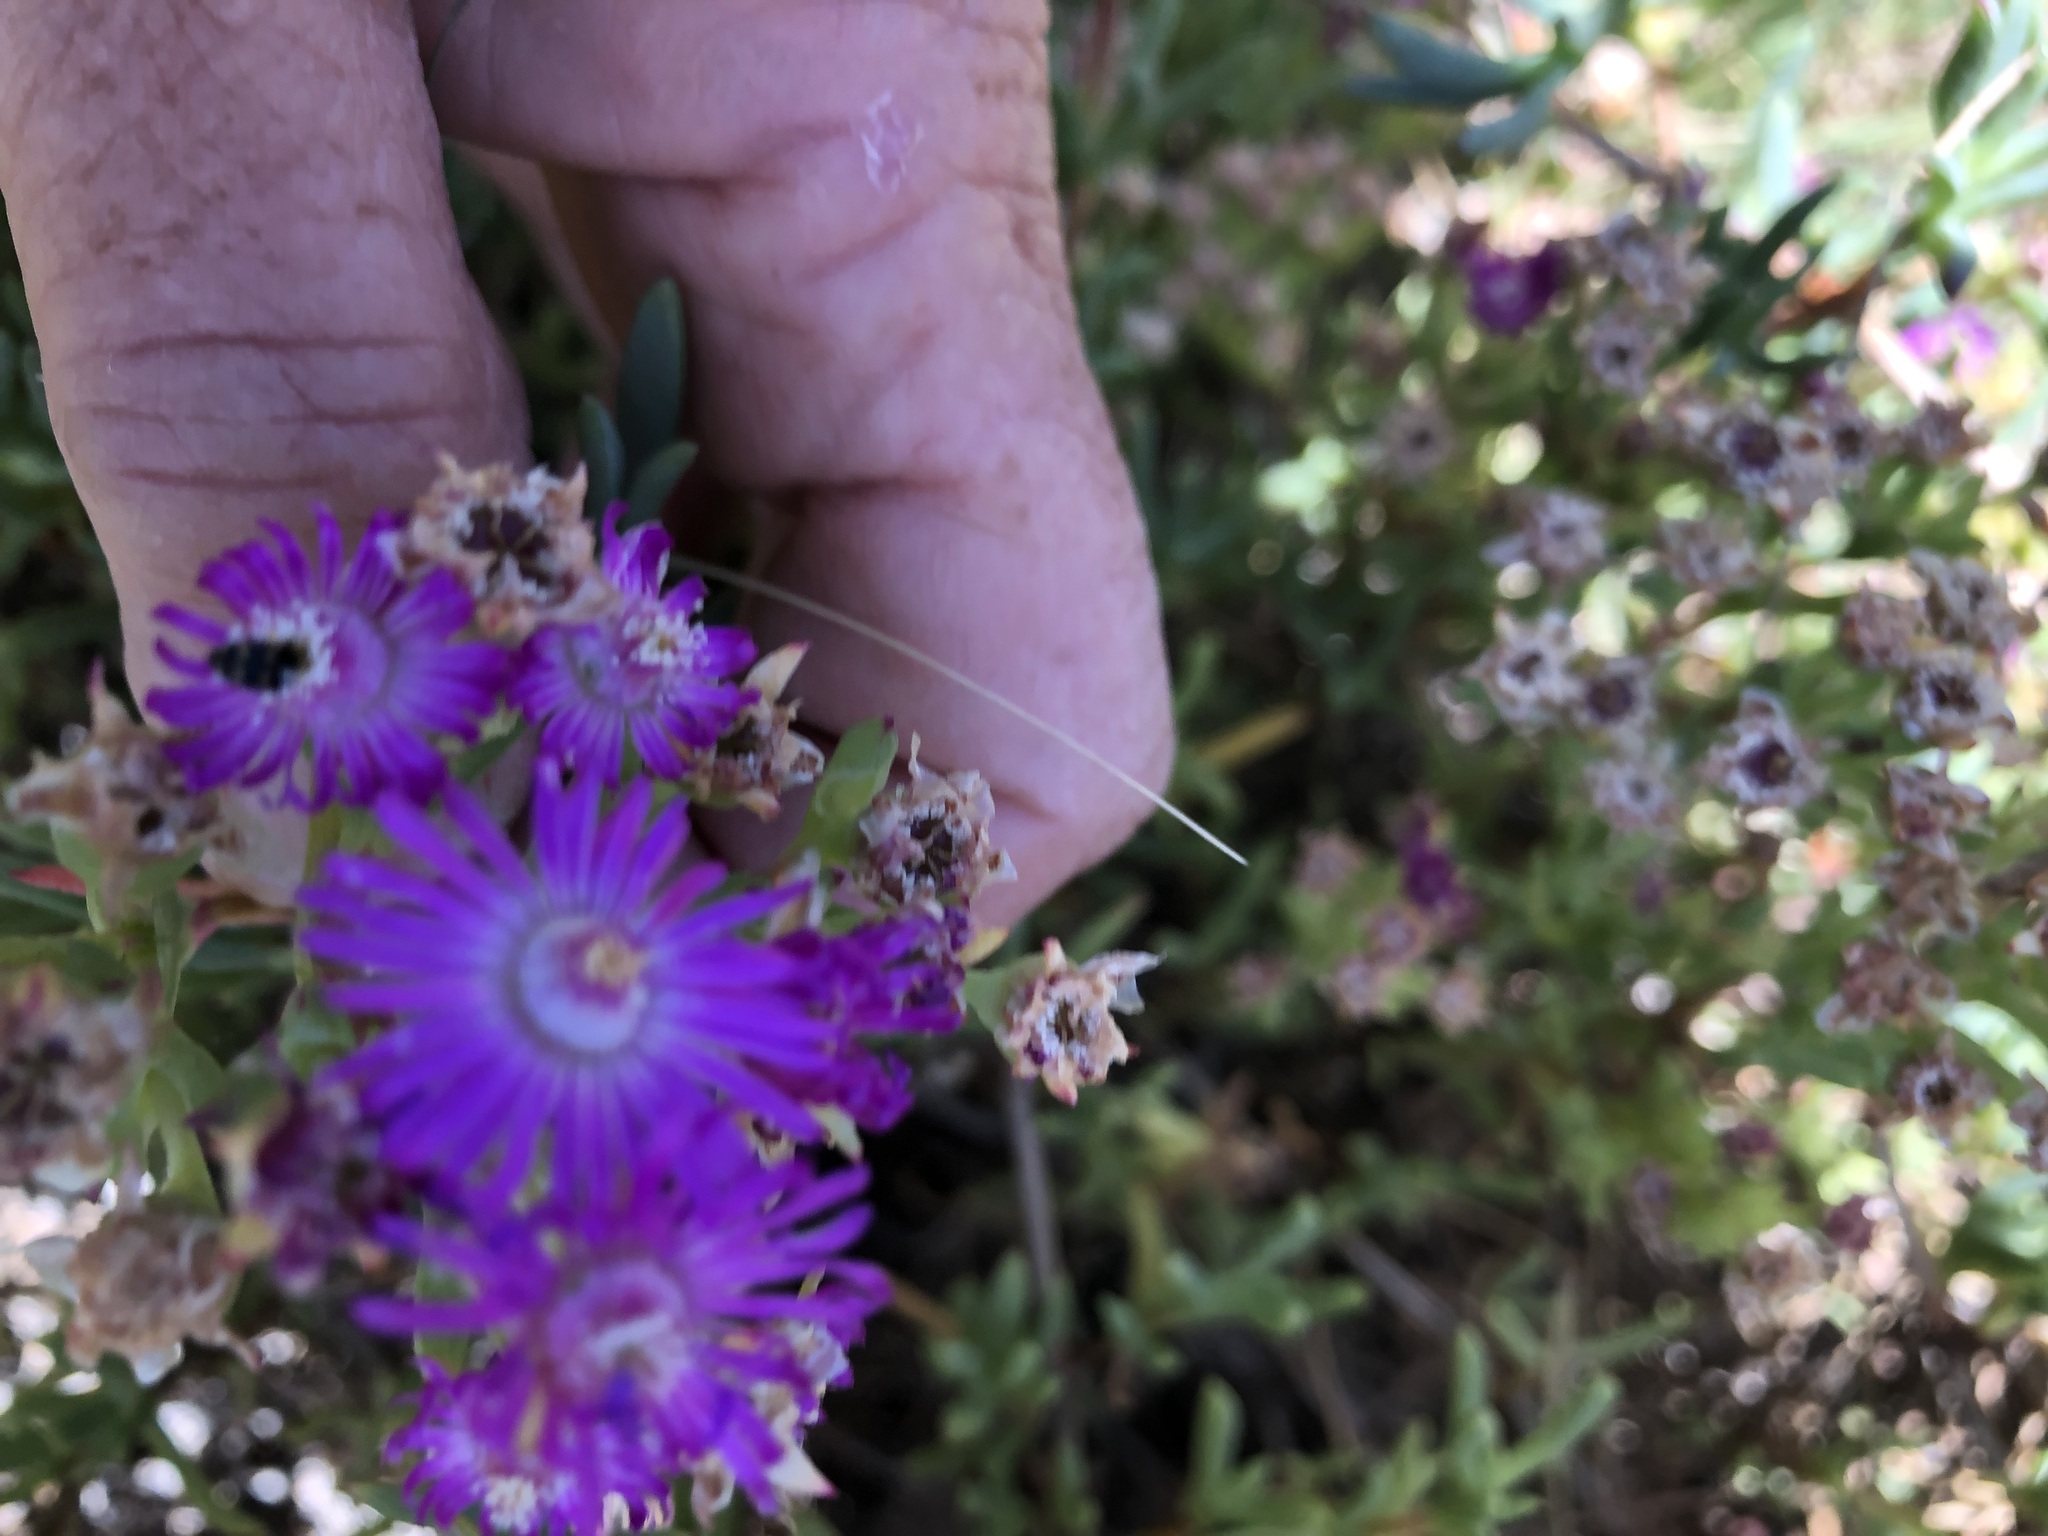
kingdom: Plantae
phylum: Tracheophyta
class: Magnoliopsida
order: Caryophyllales
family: Aizoaceae
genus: Ruschia
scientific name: Ruschia macowanii
